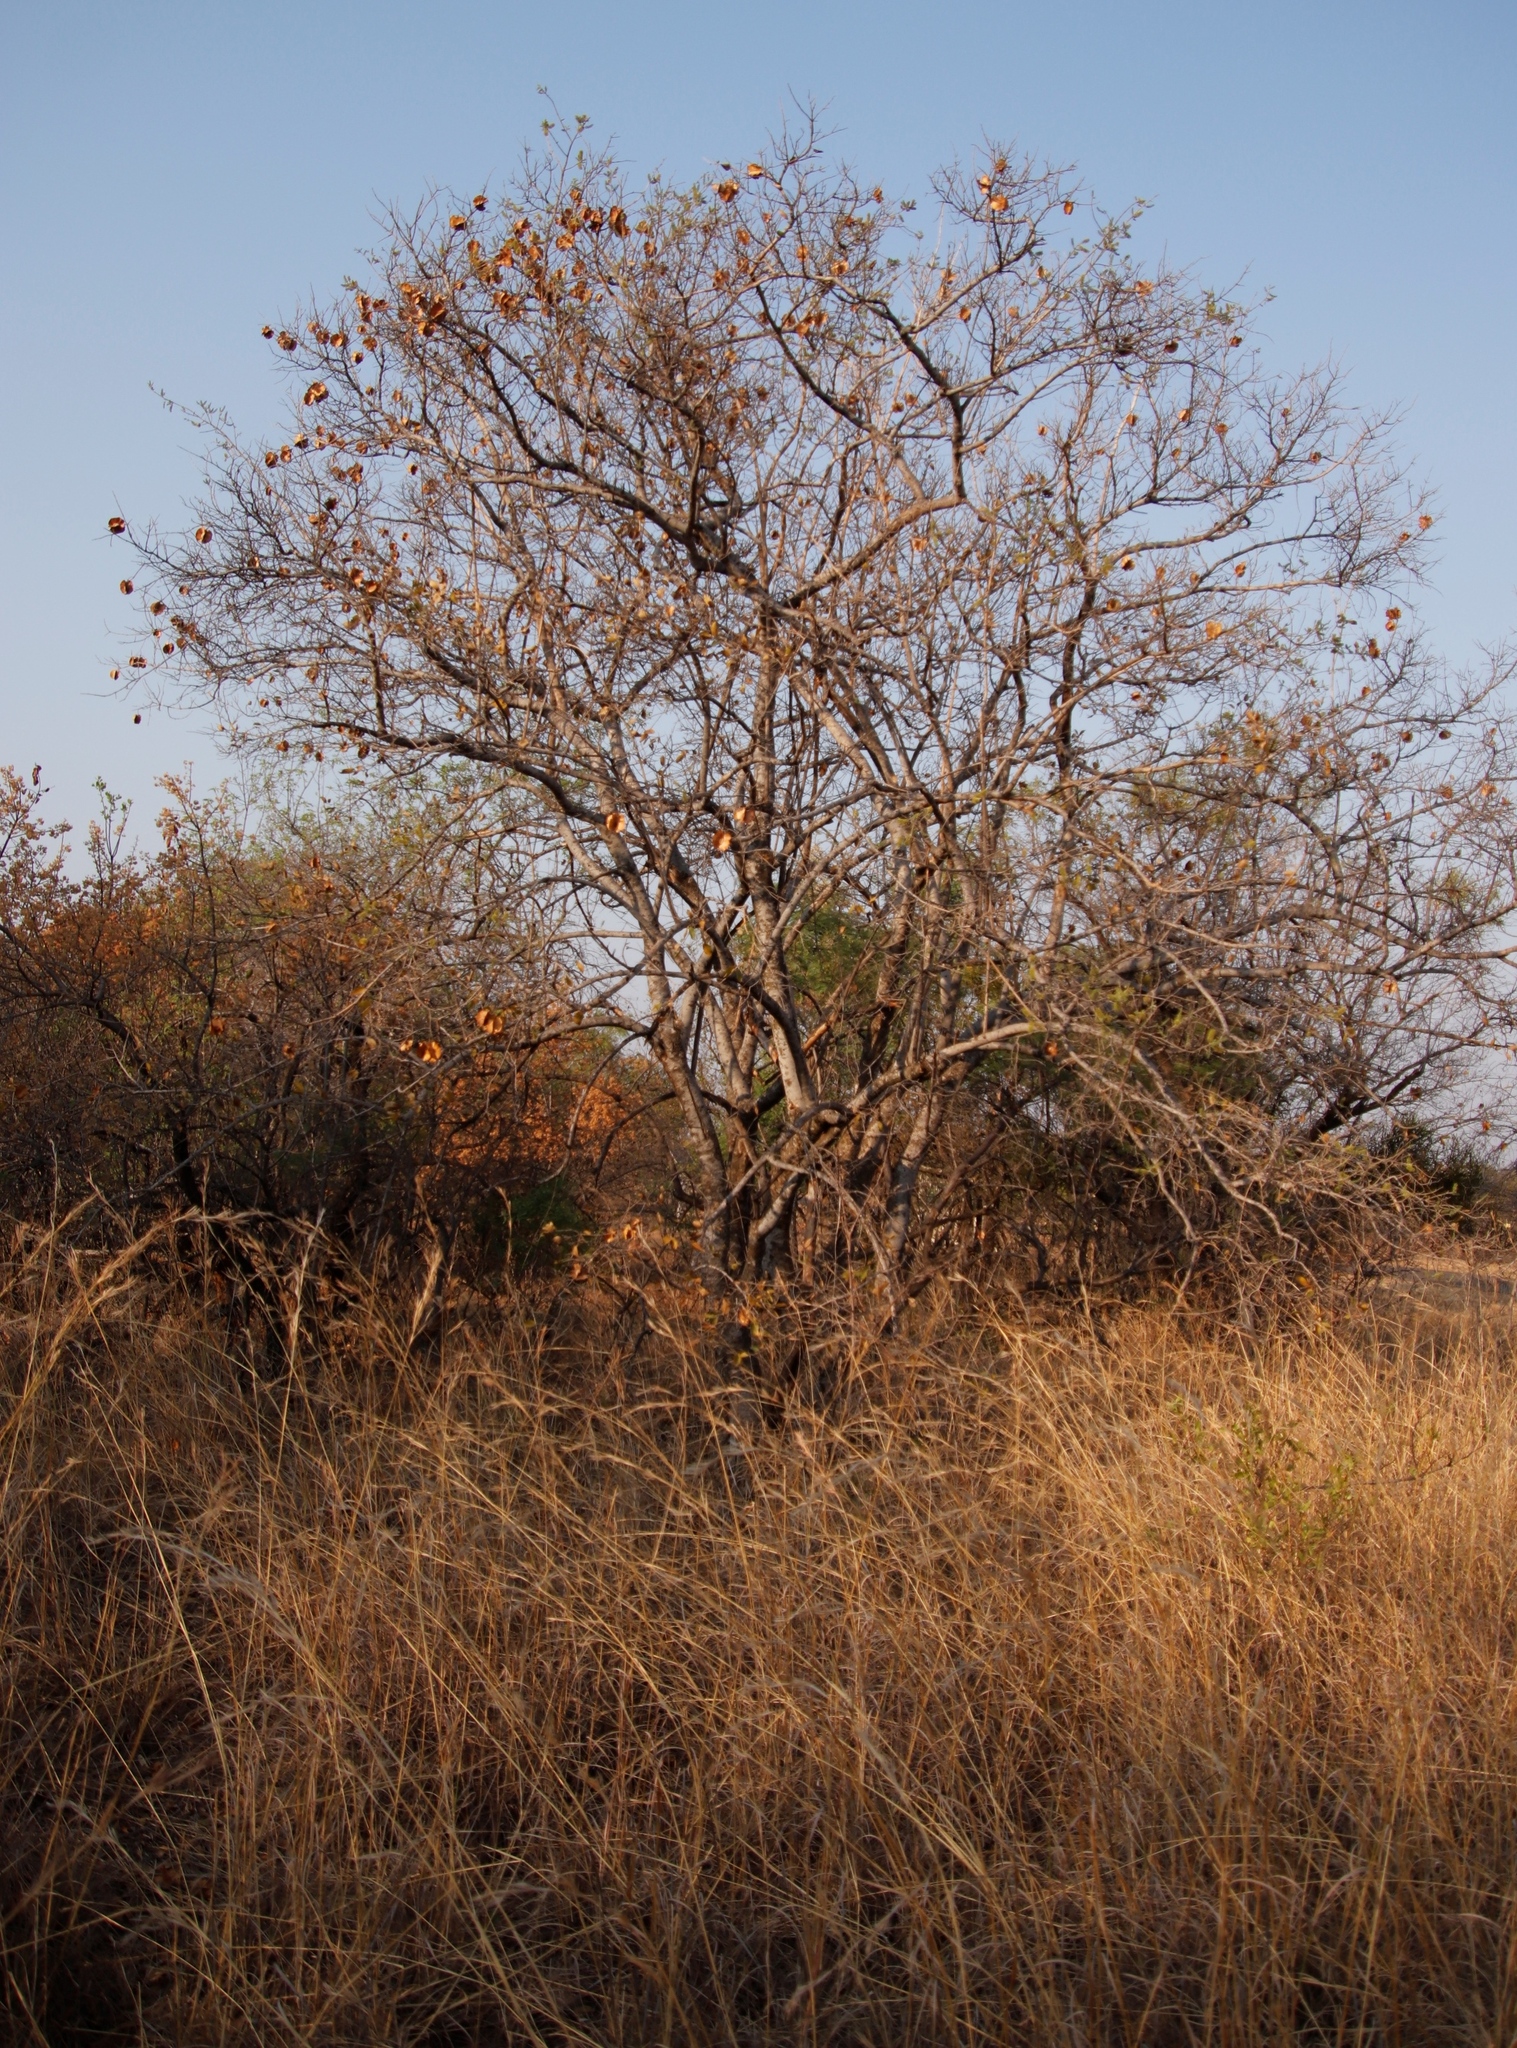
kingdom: Plantae
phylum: Tracheophyta
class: Magnoliopsida
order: Myrtales
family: Combretaceae
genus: Combretum
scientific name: Combretum zeyheri
